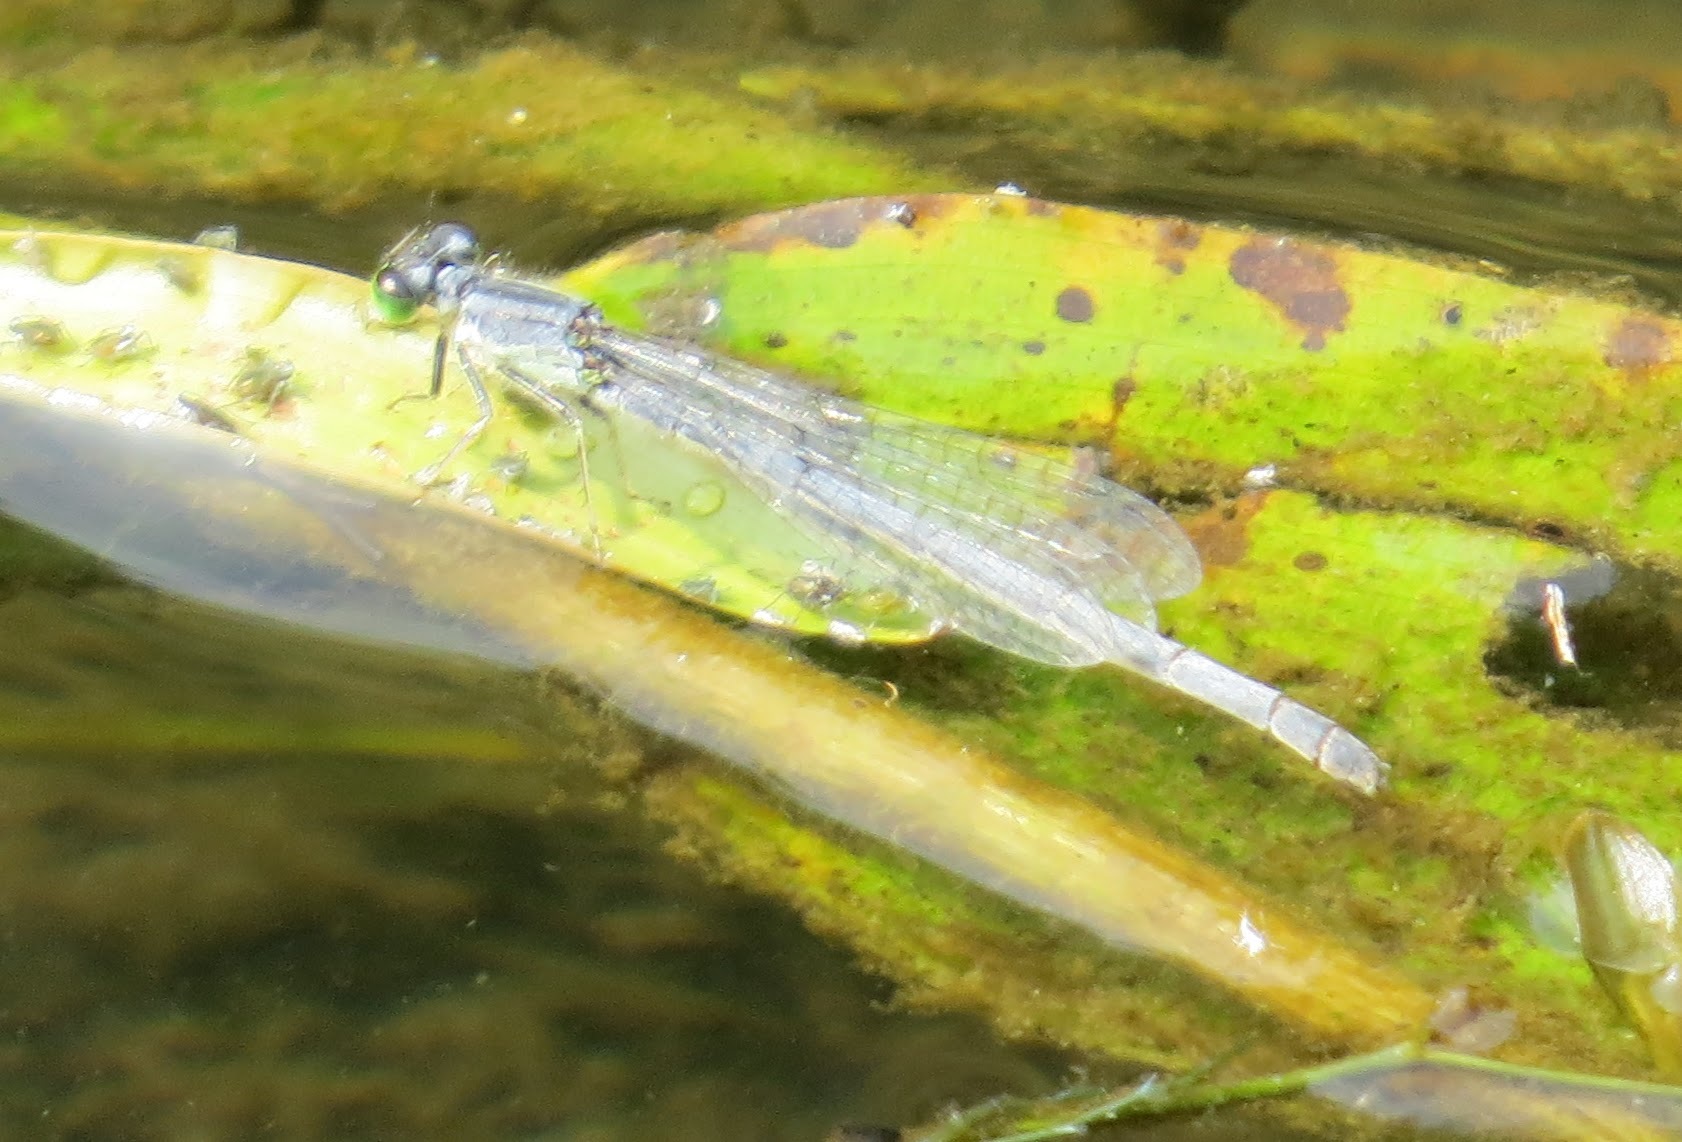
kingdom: Animalia
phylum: Arthropoda
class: Insecta
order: Odonata
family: Coenagrionidae
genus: Ischnura
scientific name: Ischnura verticalis
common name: Eastern forktail
